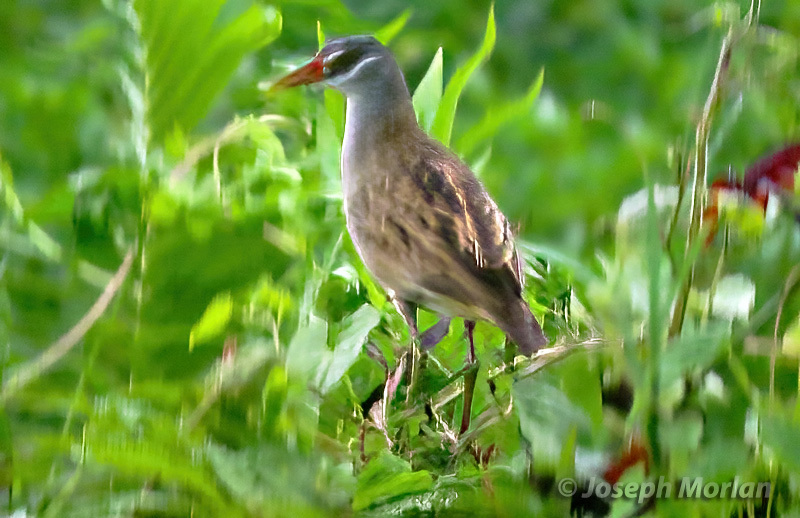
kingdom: Animalia
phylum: Chordata
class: Aves
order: Gruiformes
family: Rallidae
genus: Porzana
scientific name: Porzana cinerea
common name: White-browed crake
